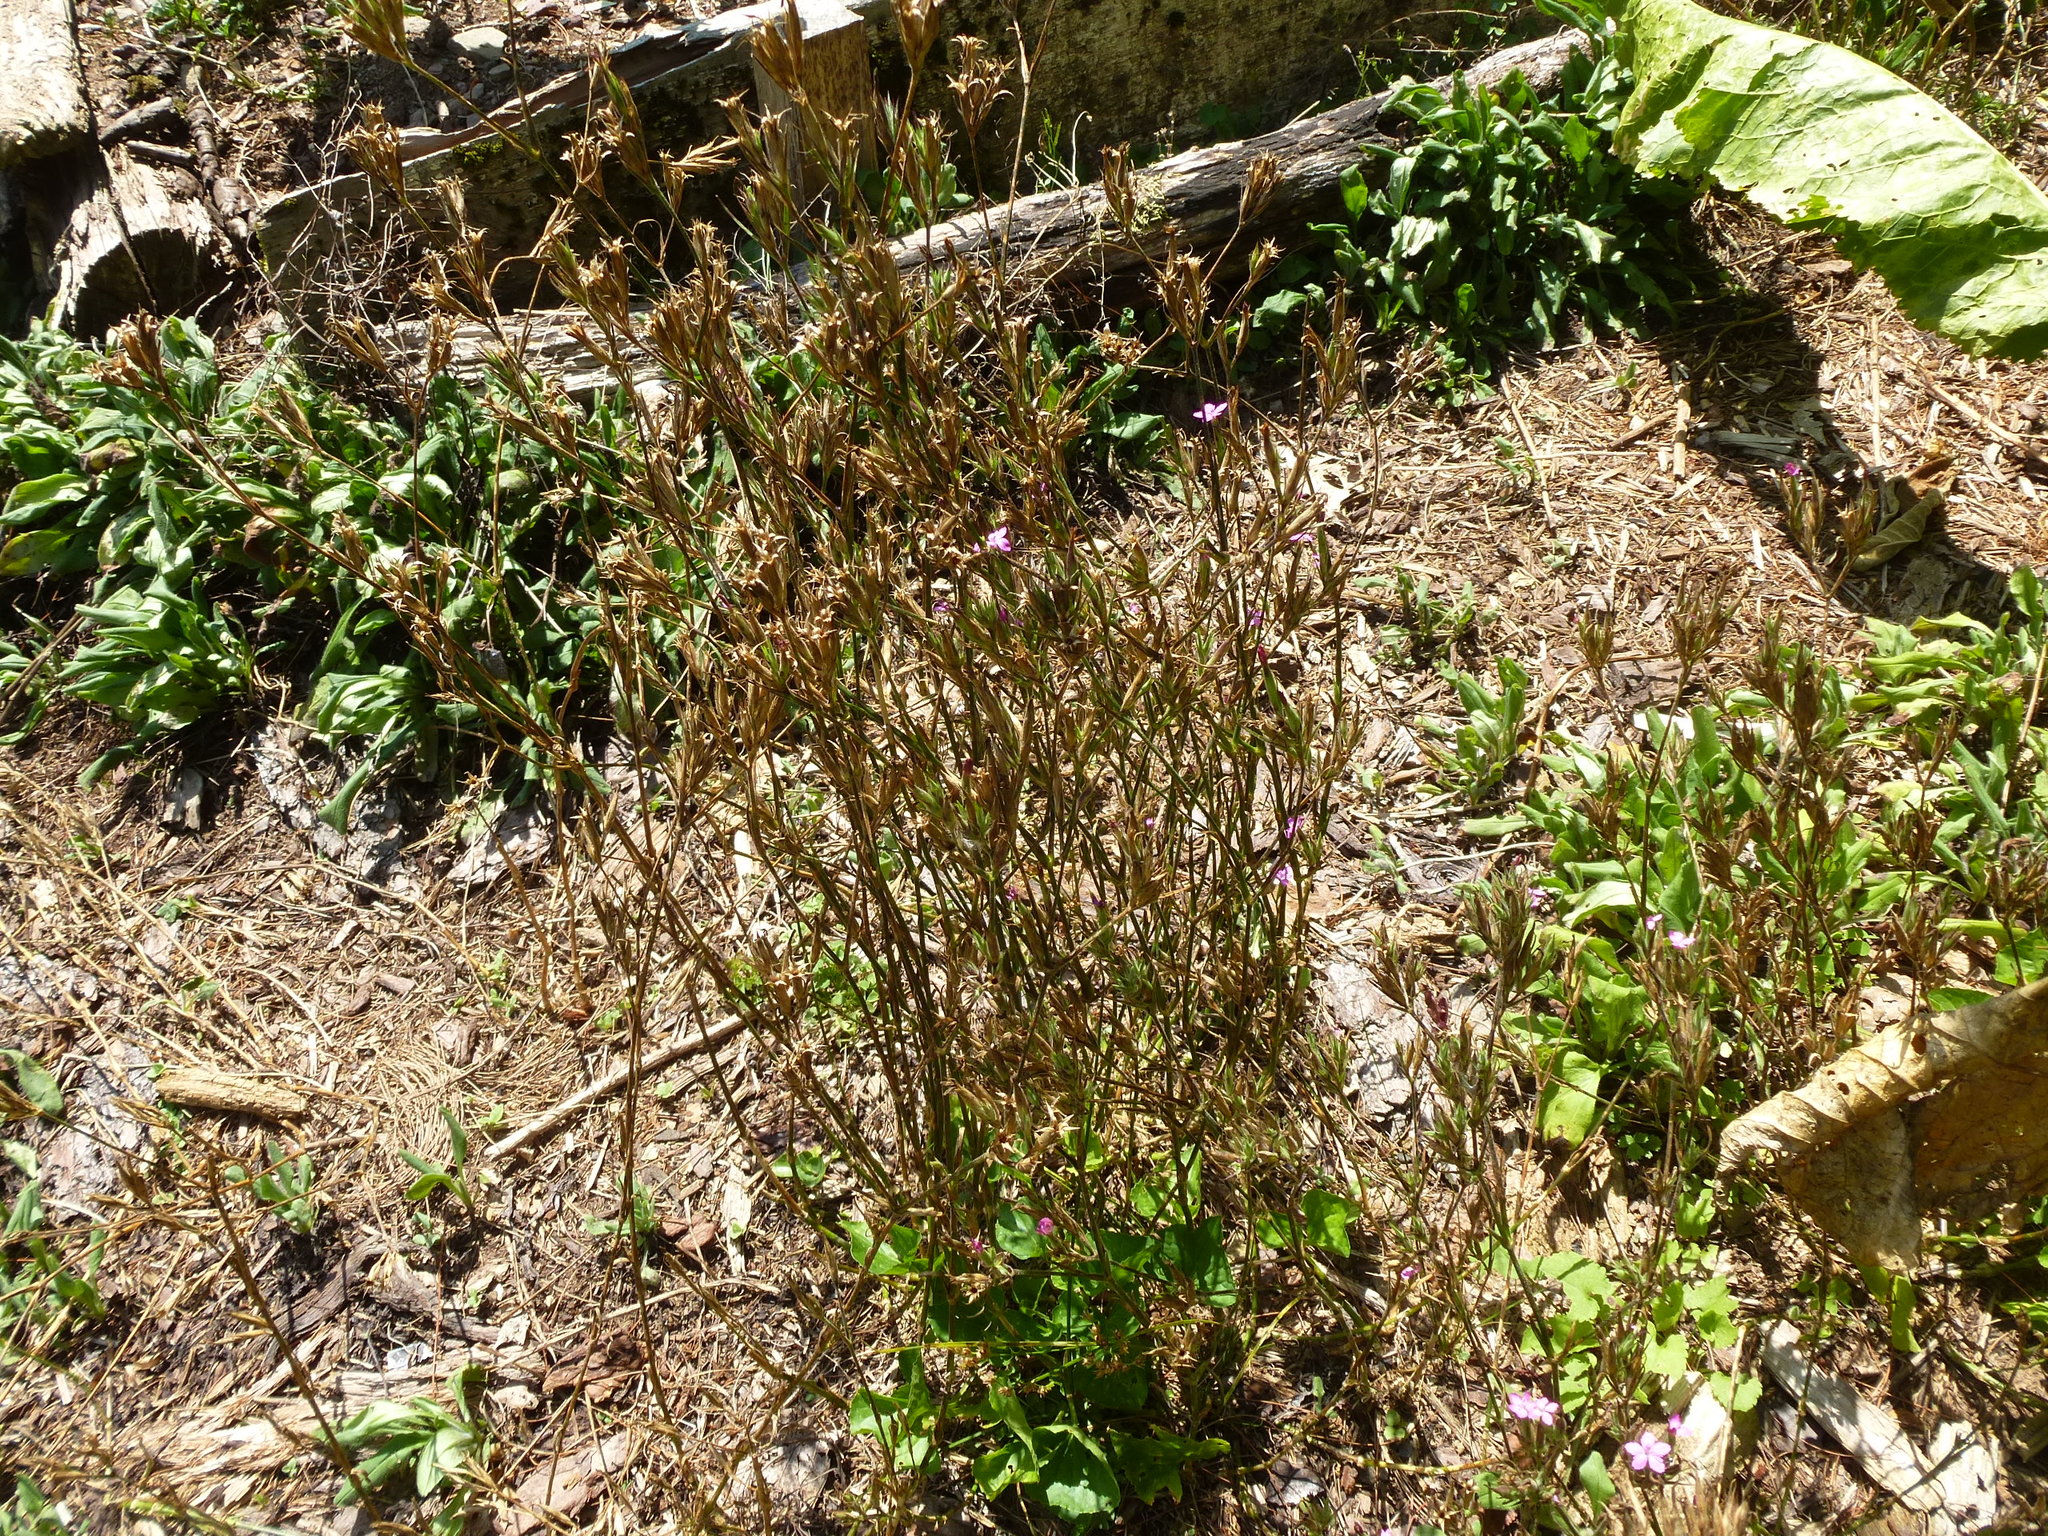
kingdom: Plantae
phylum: Tracheophyta
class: Magnoliopsida
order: Caryophyllales
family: Caryophyllaceae
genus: Dianthus
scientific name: Dianthus armeria
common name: Deptford pink
